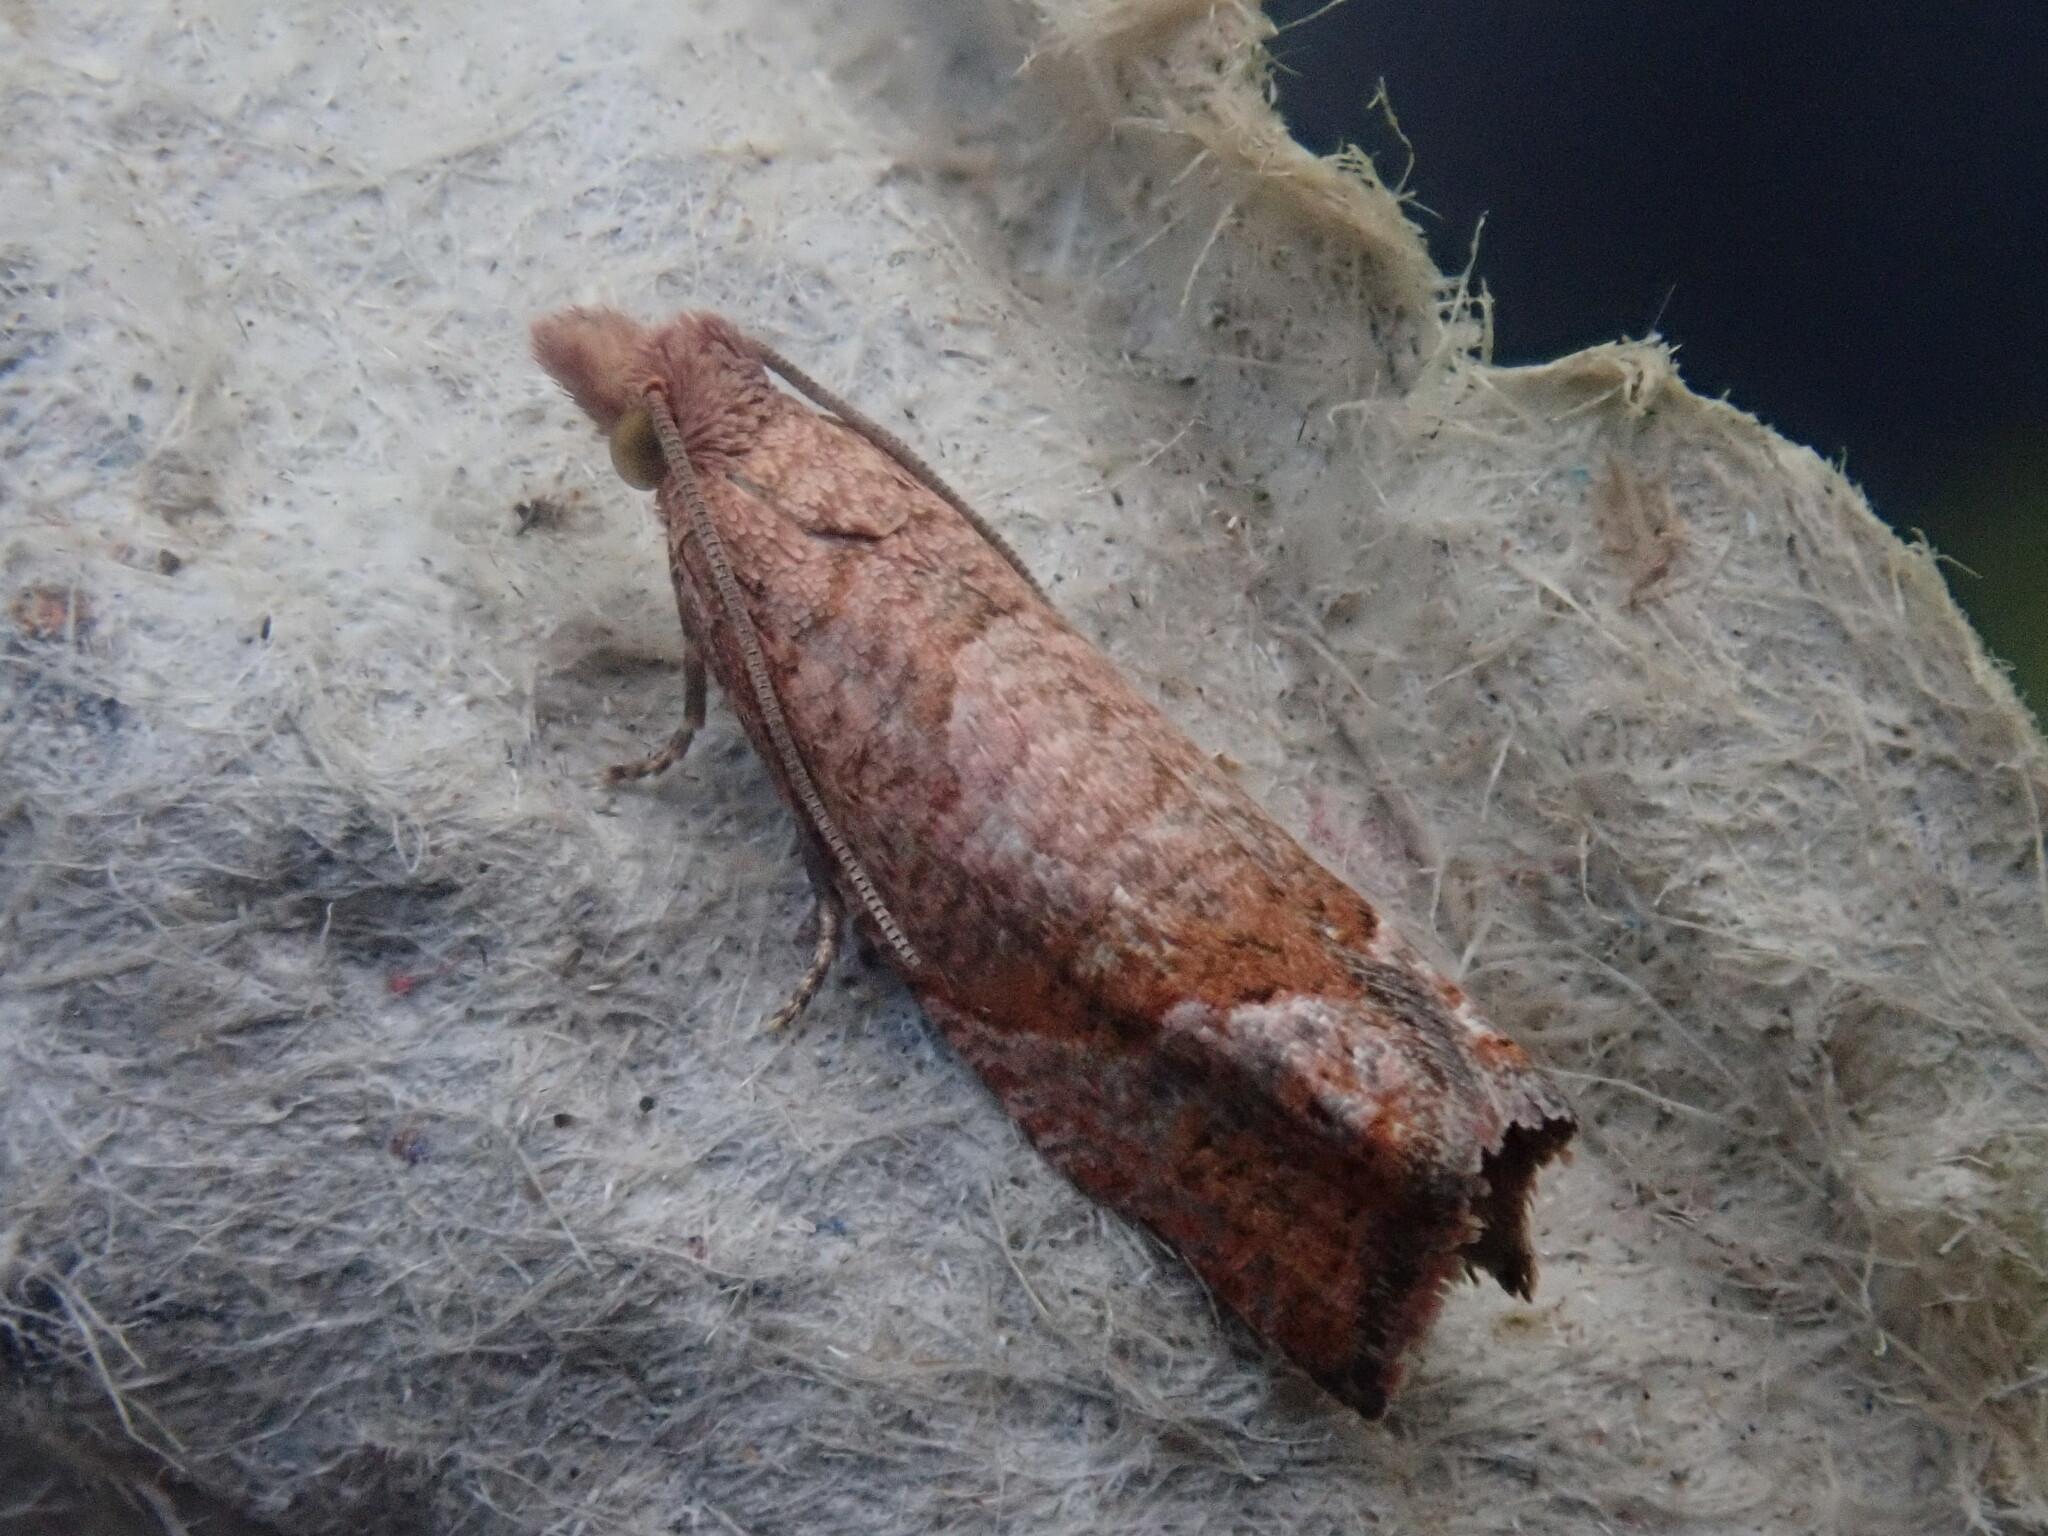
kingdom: Animalia
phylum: Arthropoda
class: Insecta
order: Lepidoptera
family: Tortricidae
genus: Pelochrista
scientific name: Pelochrista derelicta
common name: Derelict pelochrista moth
